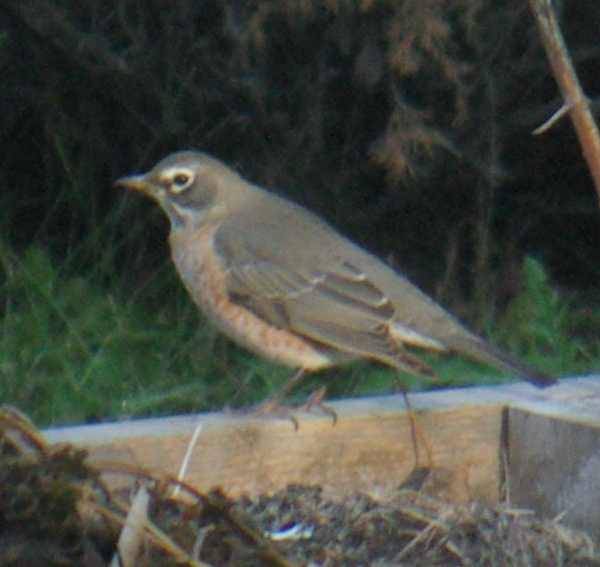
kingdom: Animalia
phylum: Chordata
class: Aves
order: Passeriformes
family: Turdidae
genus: Turdus
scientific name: Turdus migratorius
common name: American robin
